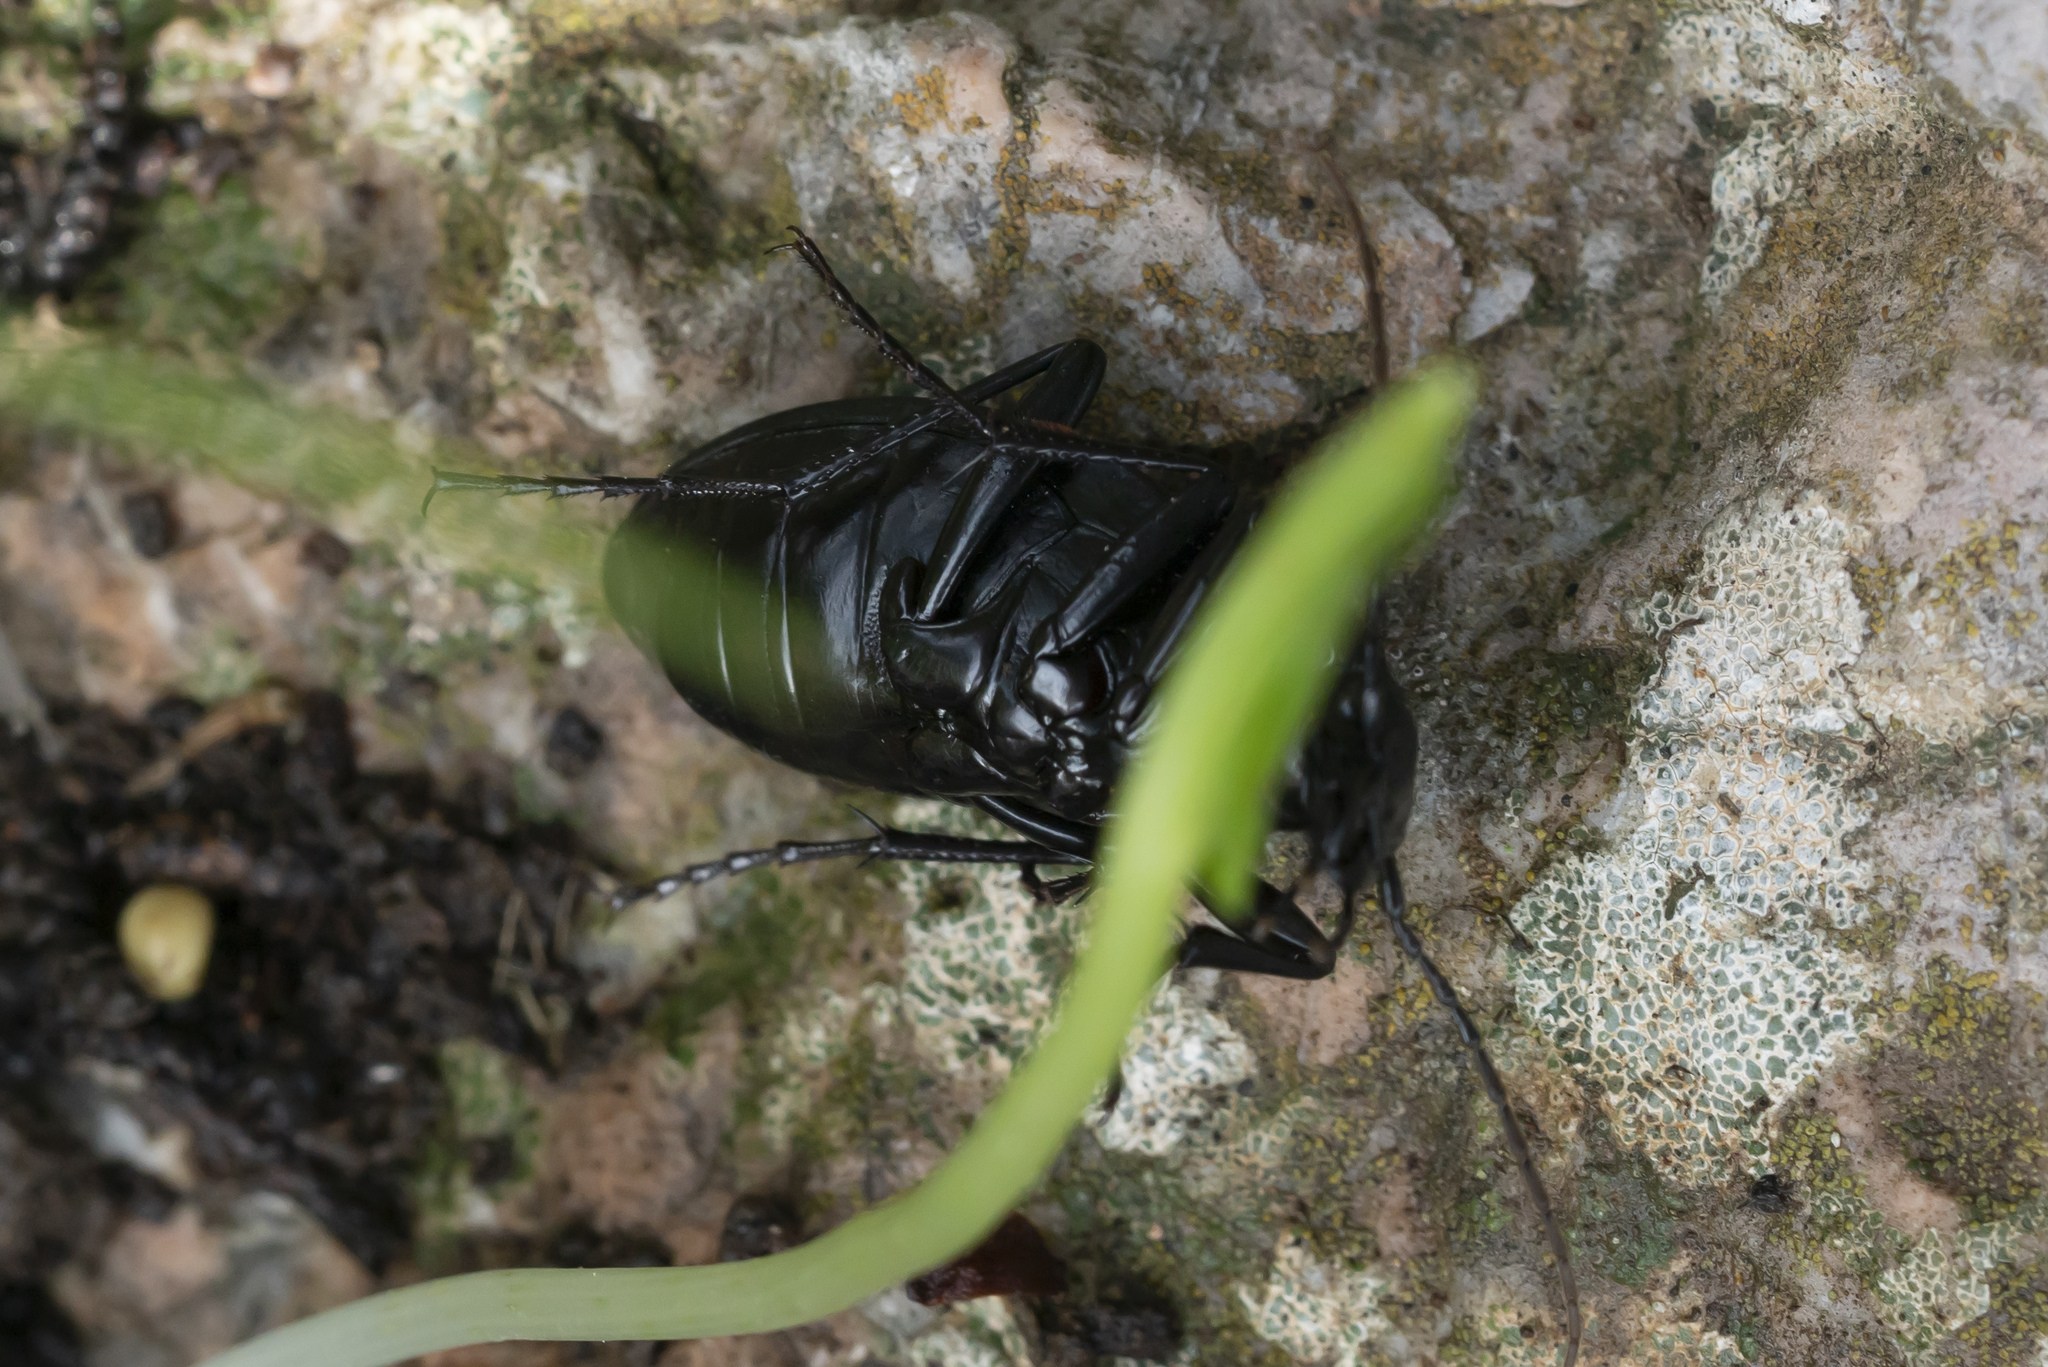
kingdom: Animalia
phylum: Arthropoda
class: Insecta
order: Coleoptera
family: Carabidae
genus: Carabus
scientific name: Carabus coriaceus
